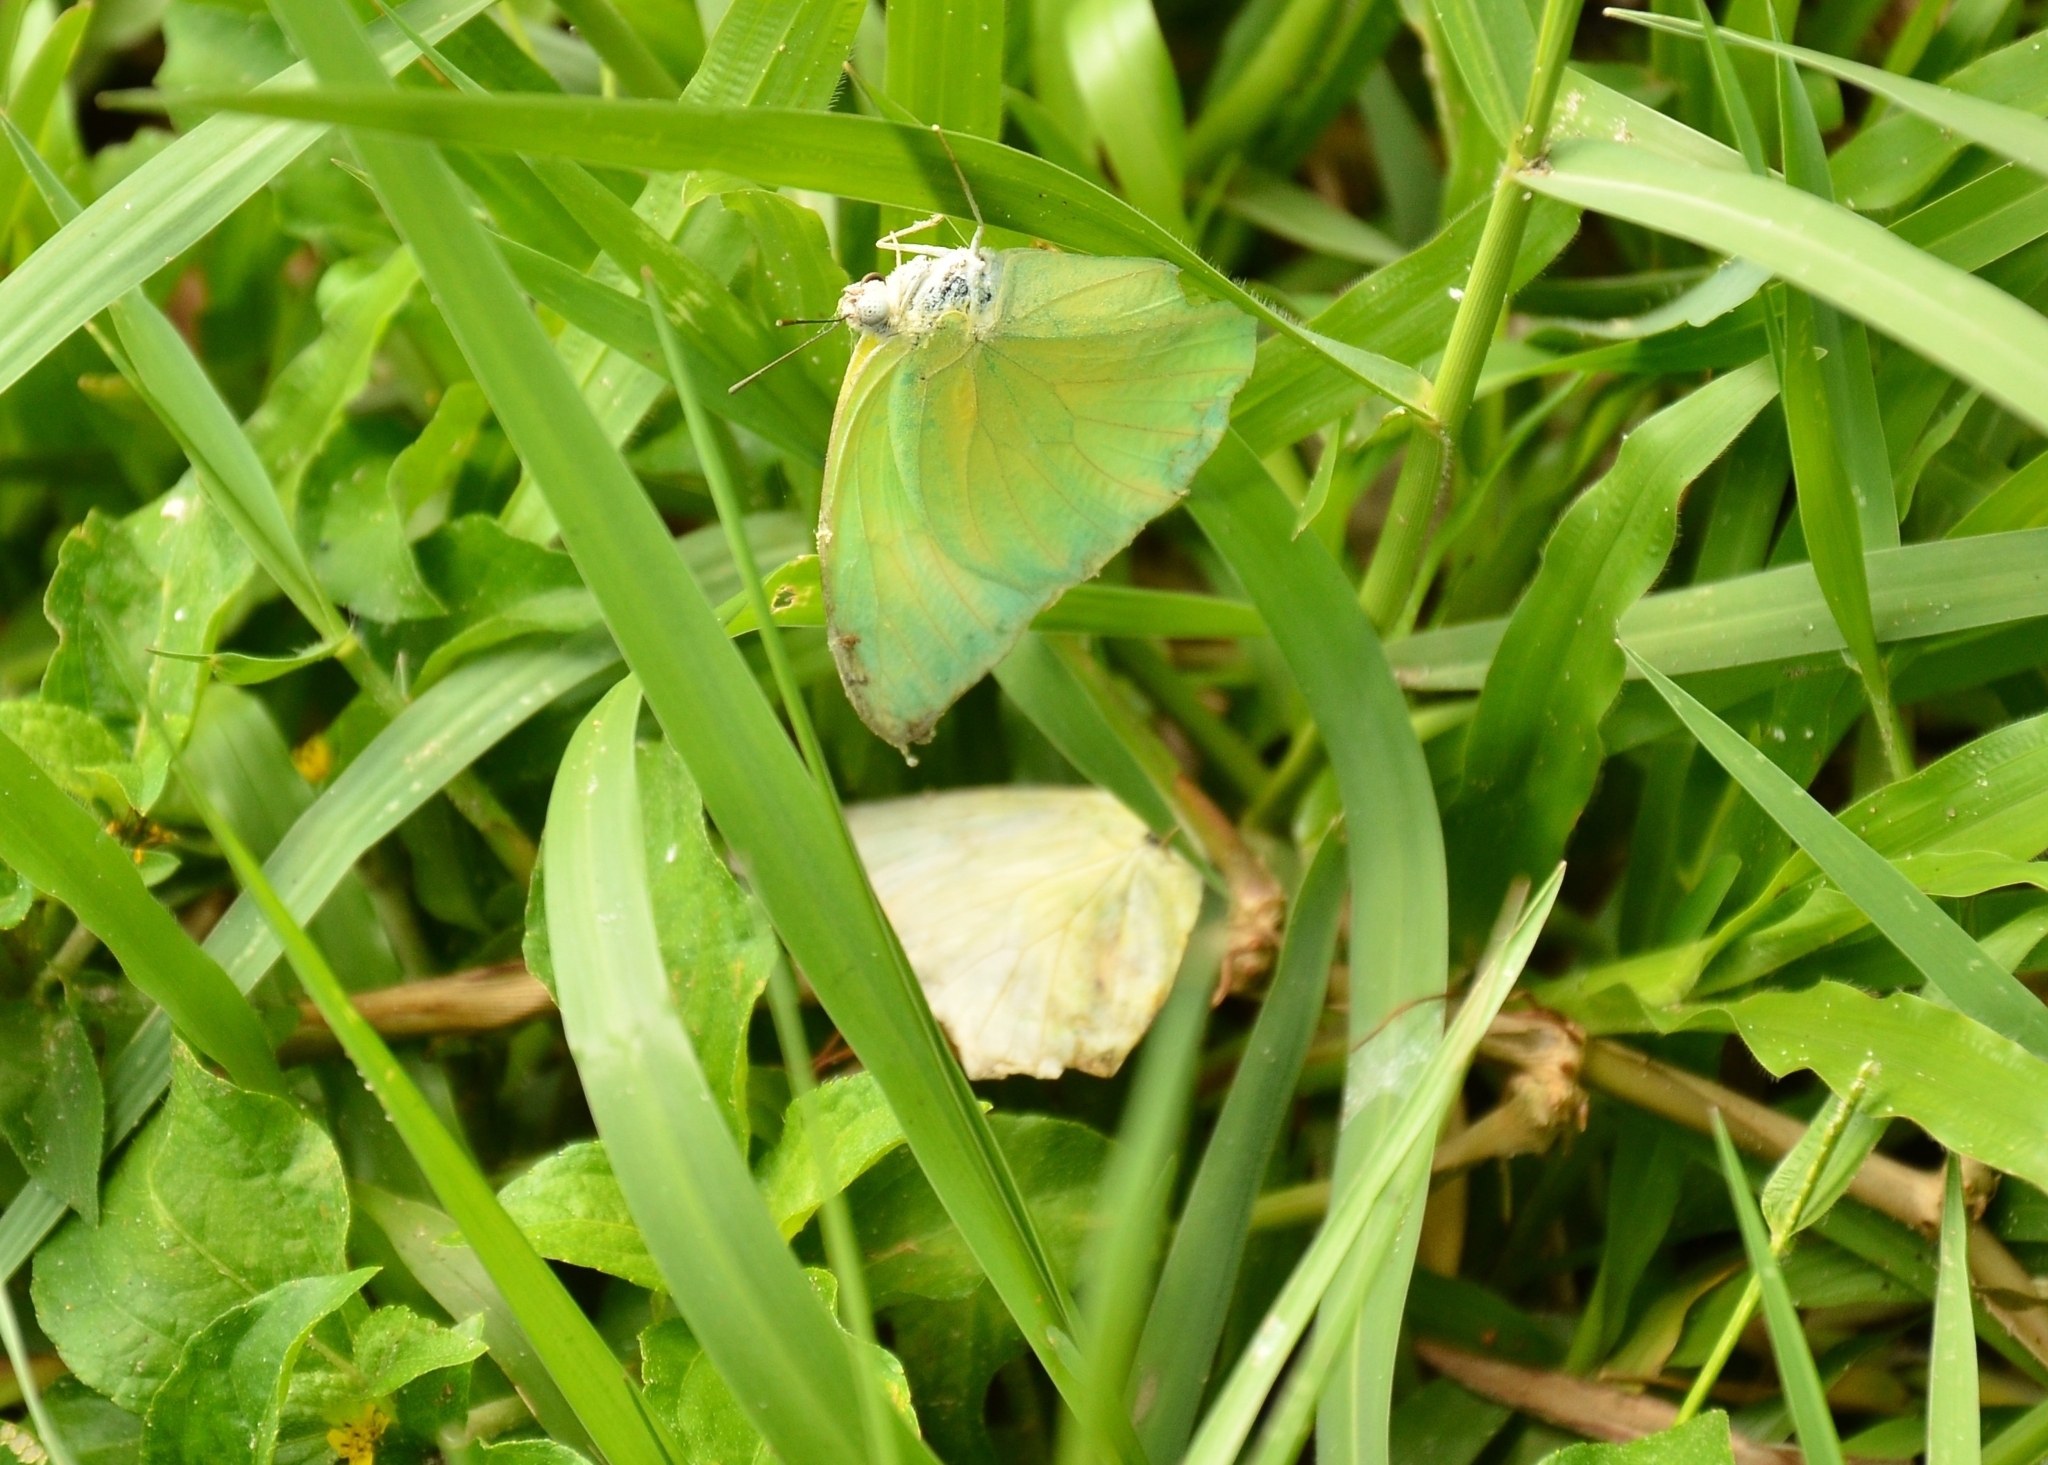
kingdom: Animalia
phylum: Arthropoda
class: Insecta
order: Lepidoptera
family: Pieridae
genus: Catopsilia
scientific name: Catopsilia pomona
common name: Common emigrant
